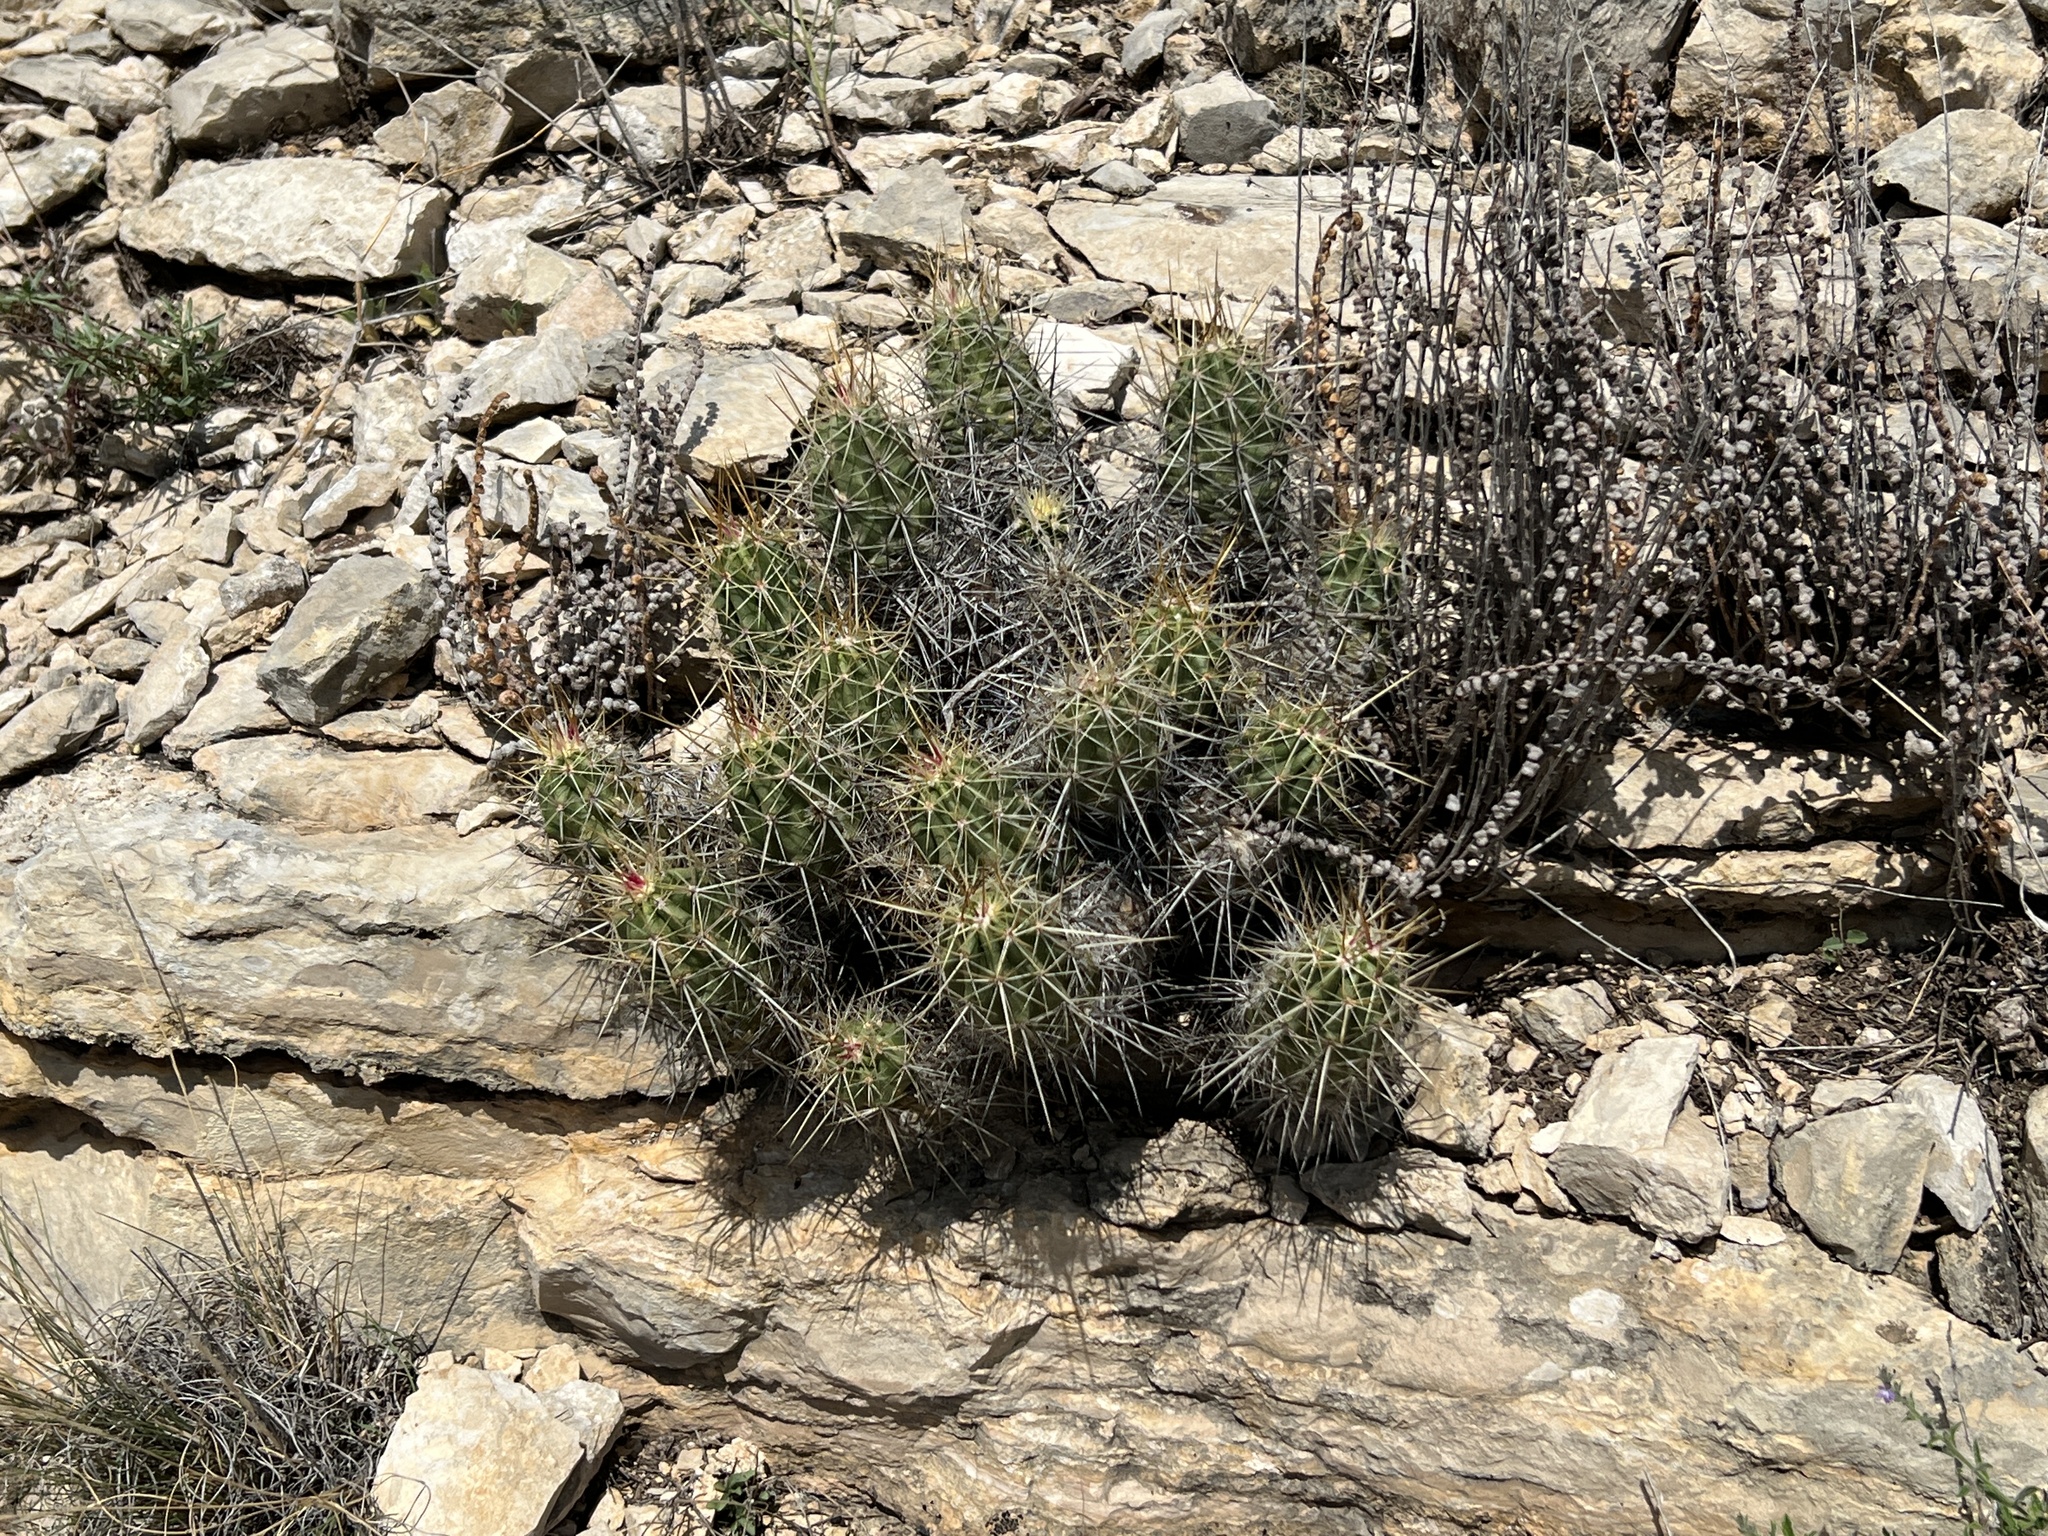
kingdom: Plantae
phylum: Tracheophyta
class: Magnoliopsida
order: Caryophyllales
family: Cactaceae
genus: Echinocereus
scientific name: Echinocereus enneacanthus
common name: Pitaya
